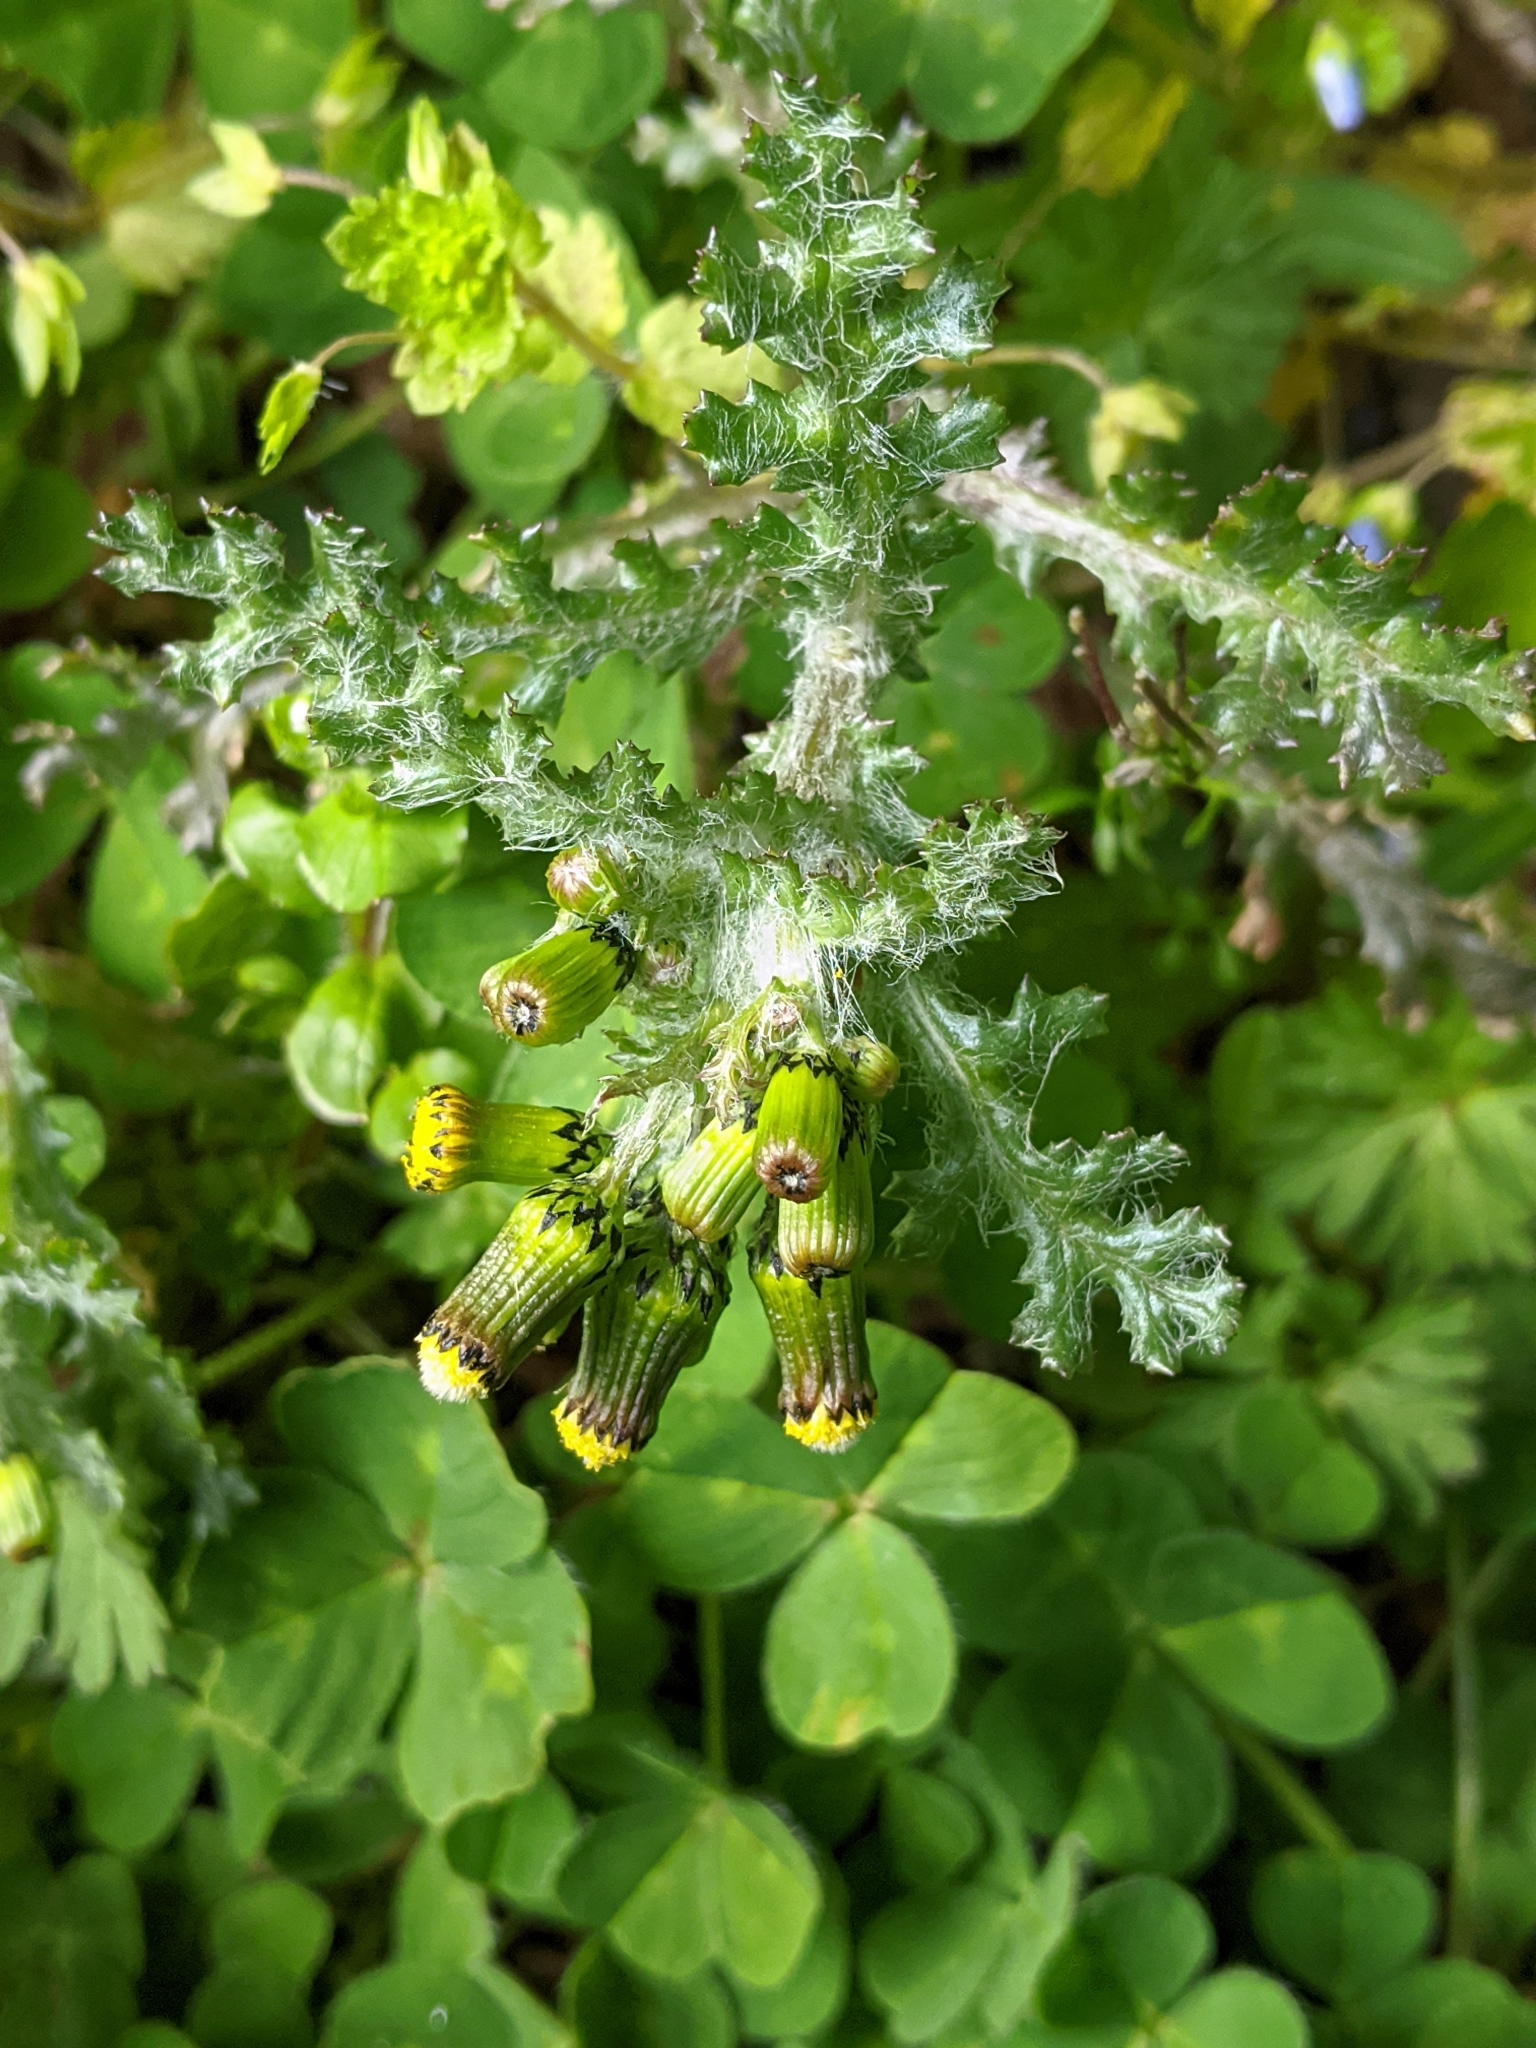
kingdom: Plantae
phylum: Tracheophyta
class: Magnoliopsida
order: Asterales
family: Asteraceae
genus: Senecio
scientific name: Senecio vulgaris
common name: Old-man-in-the-spring
